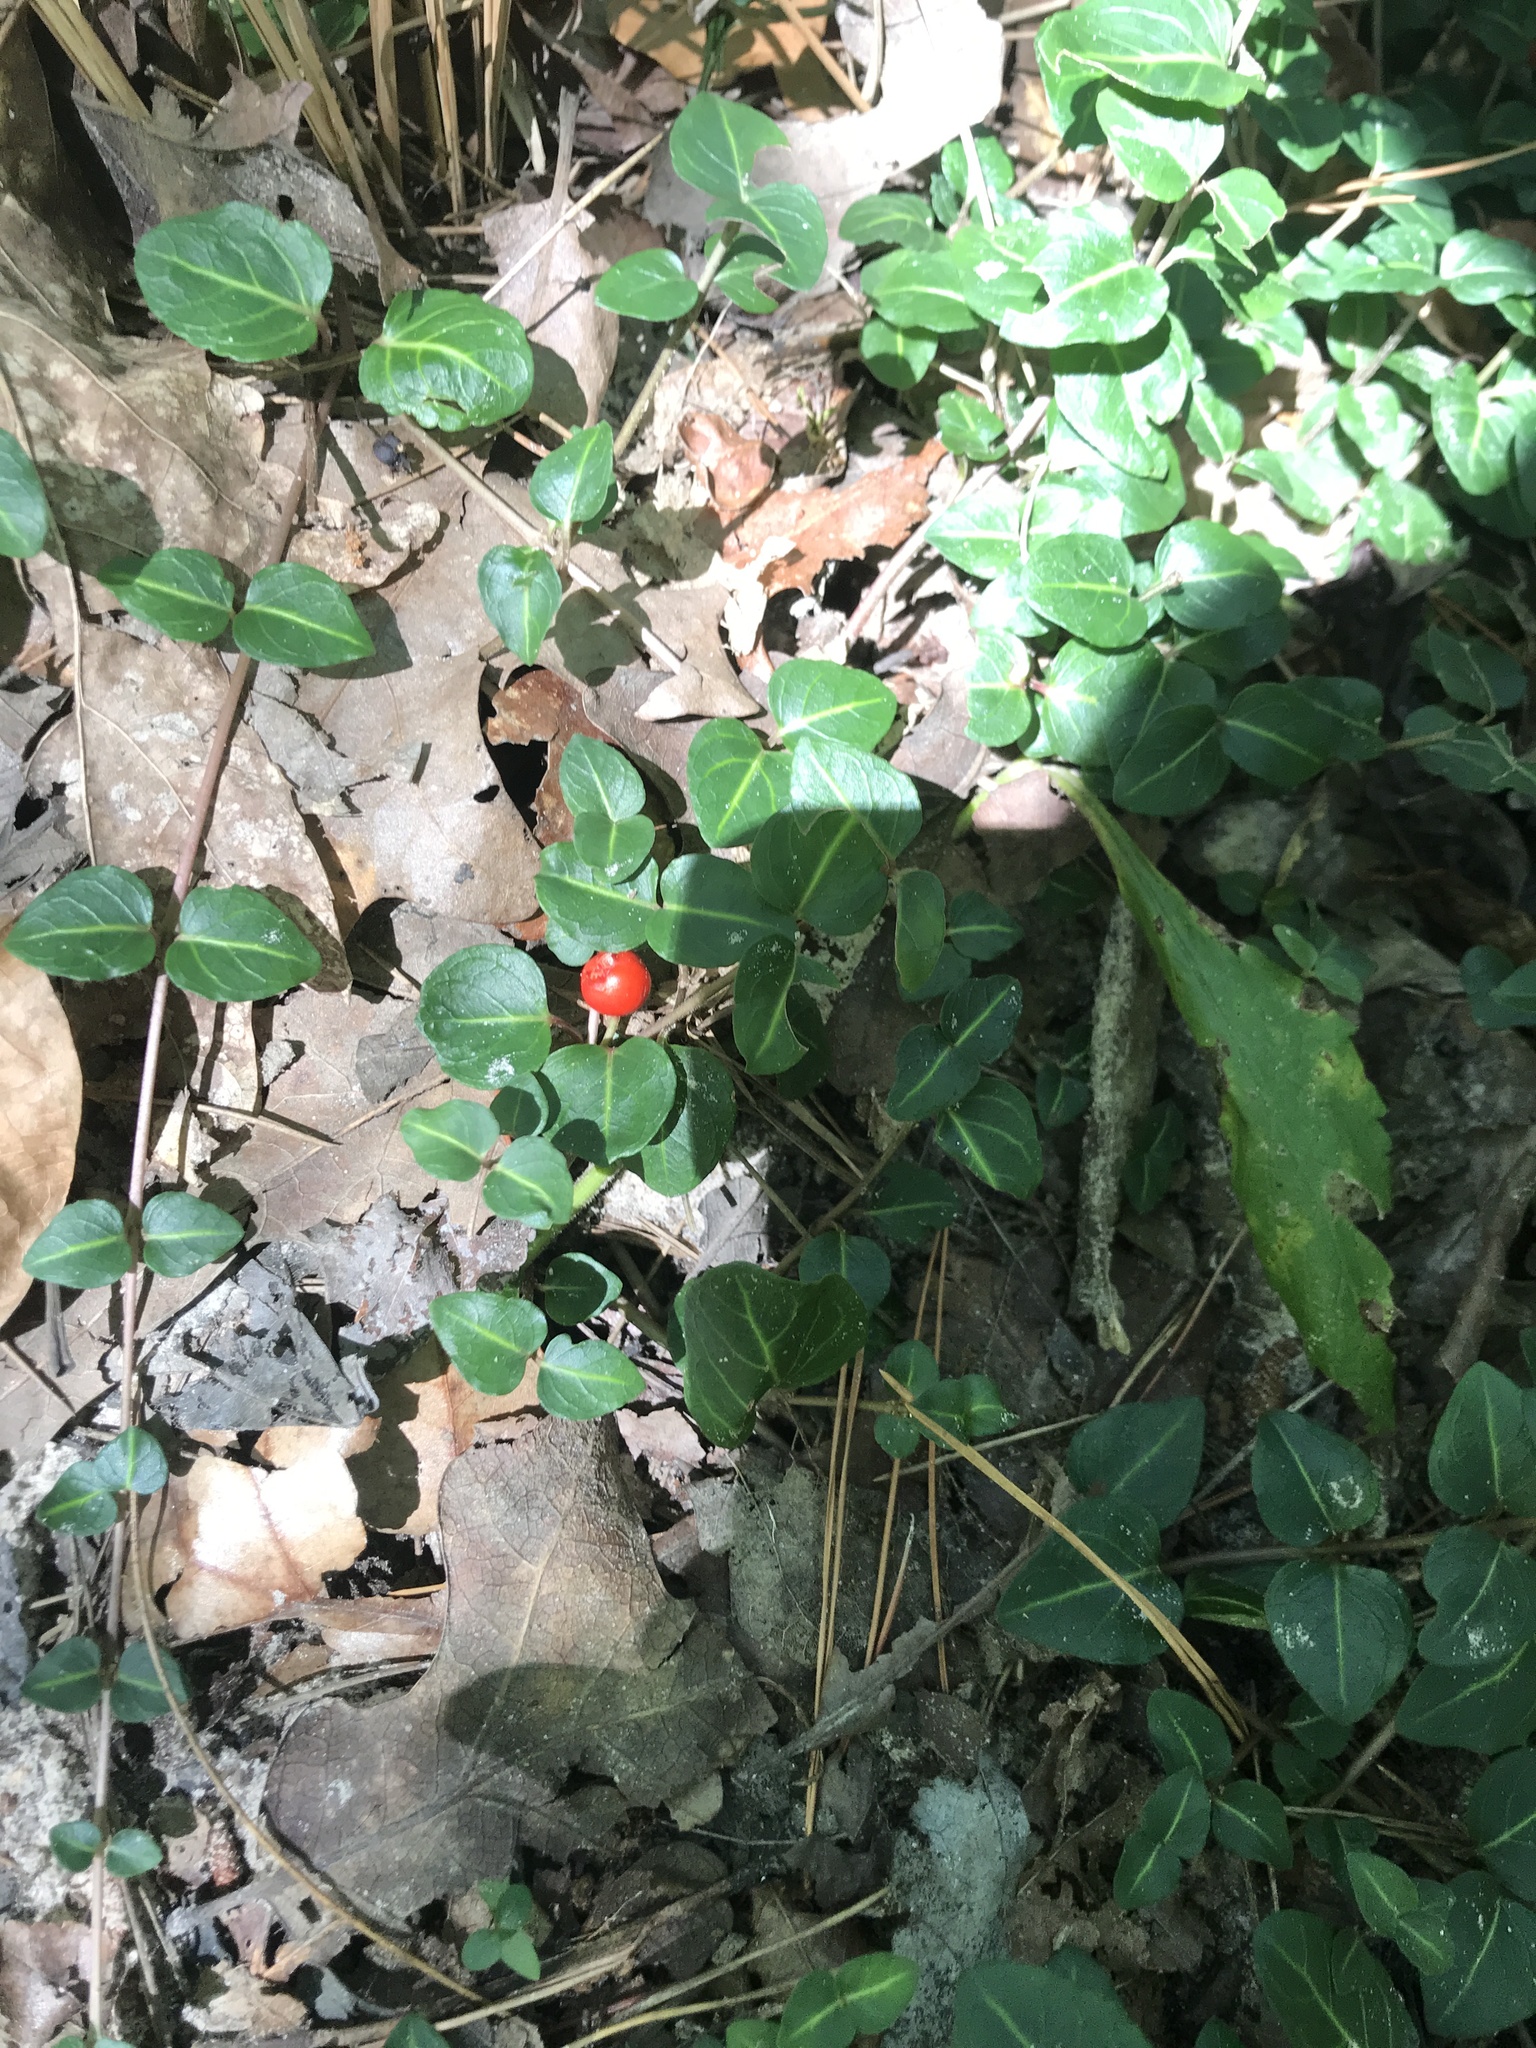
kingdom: Plantae
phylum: Tracheophyta
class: Magnoliopsida
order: Gentianales
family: Rubiaceae
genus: Mitchella
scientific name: Mitchella repens
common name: Partridge-berry
